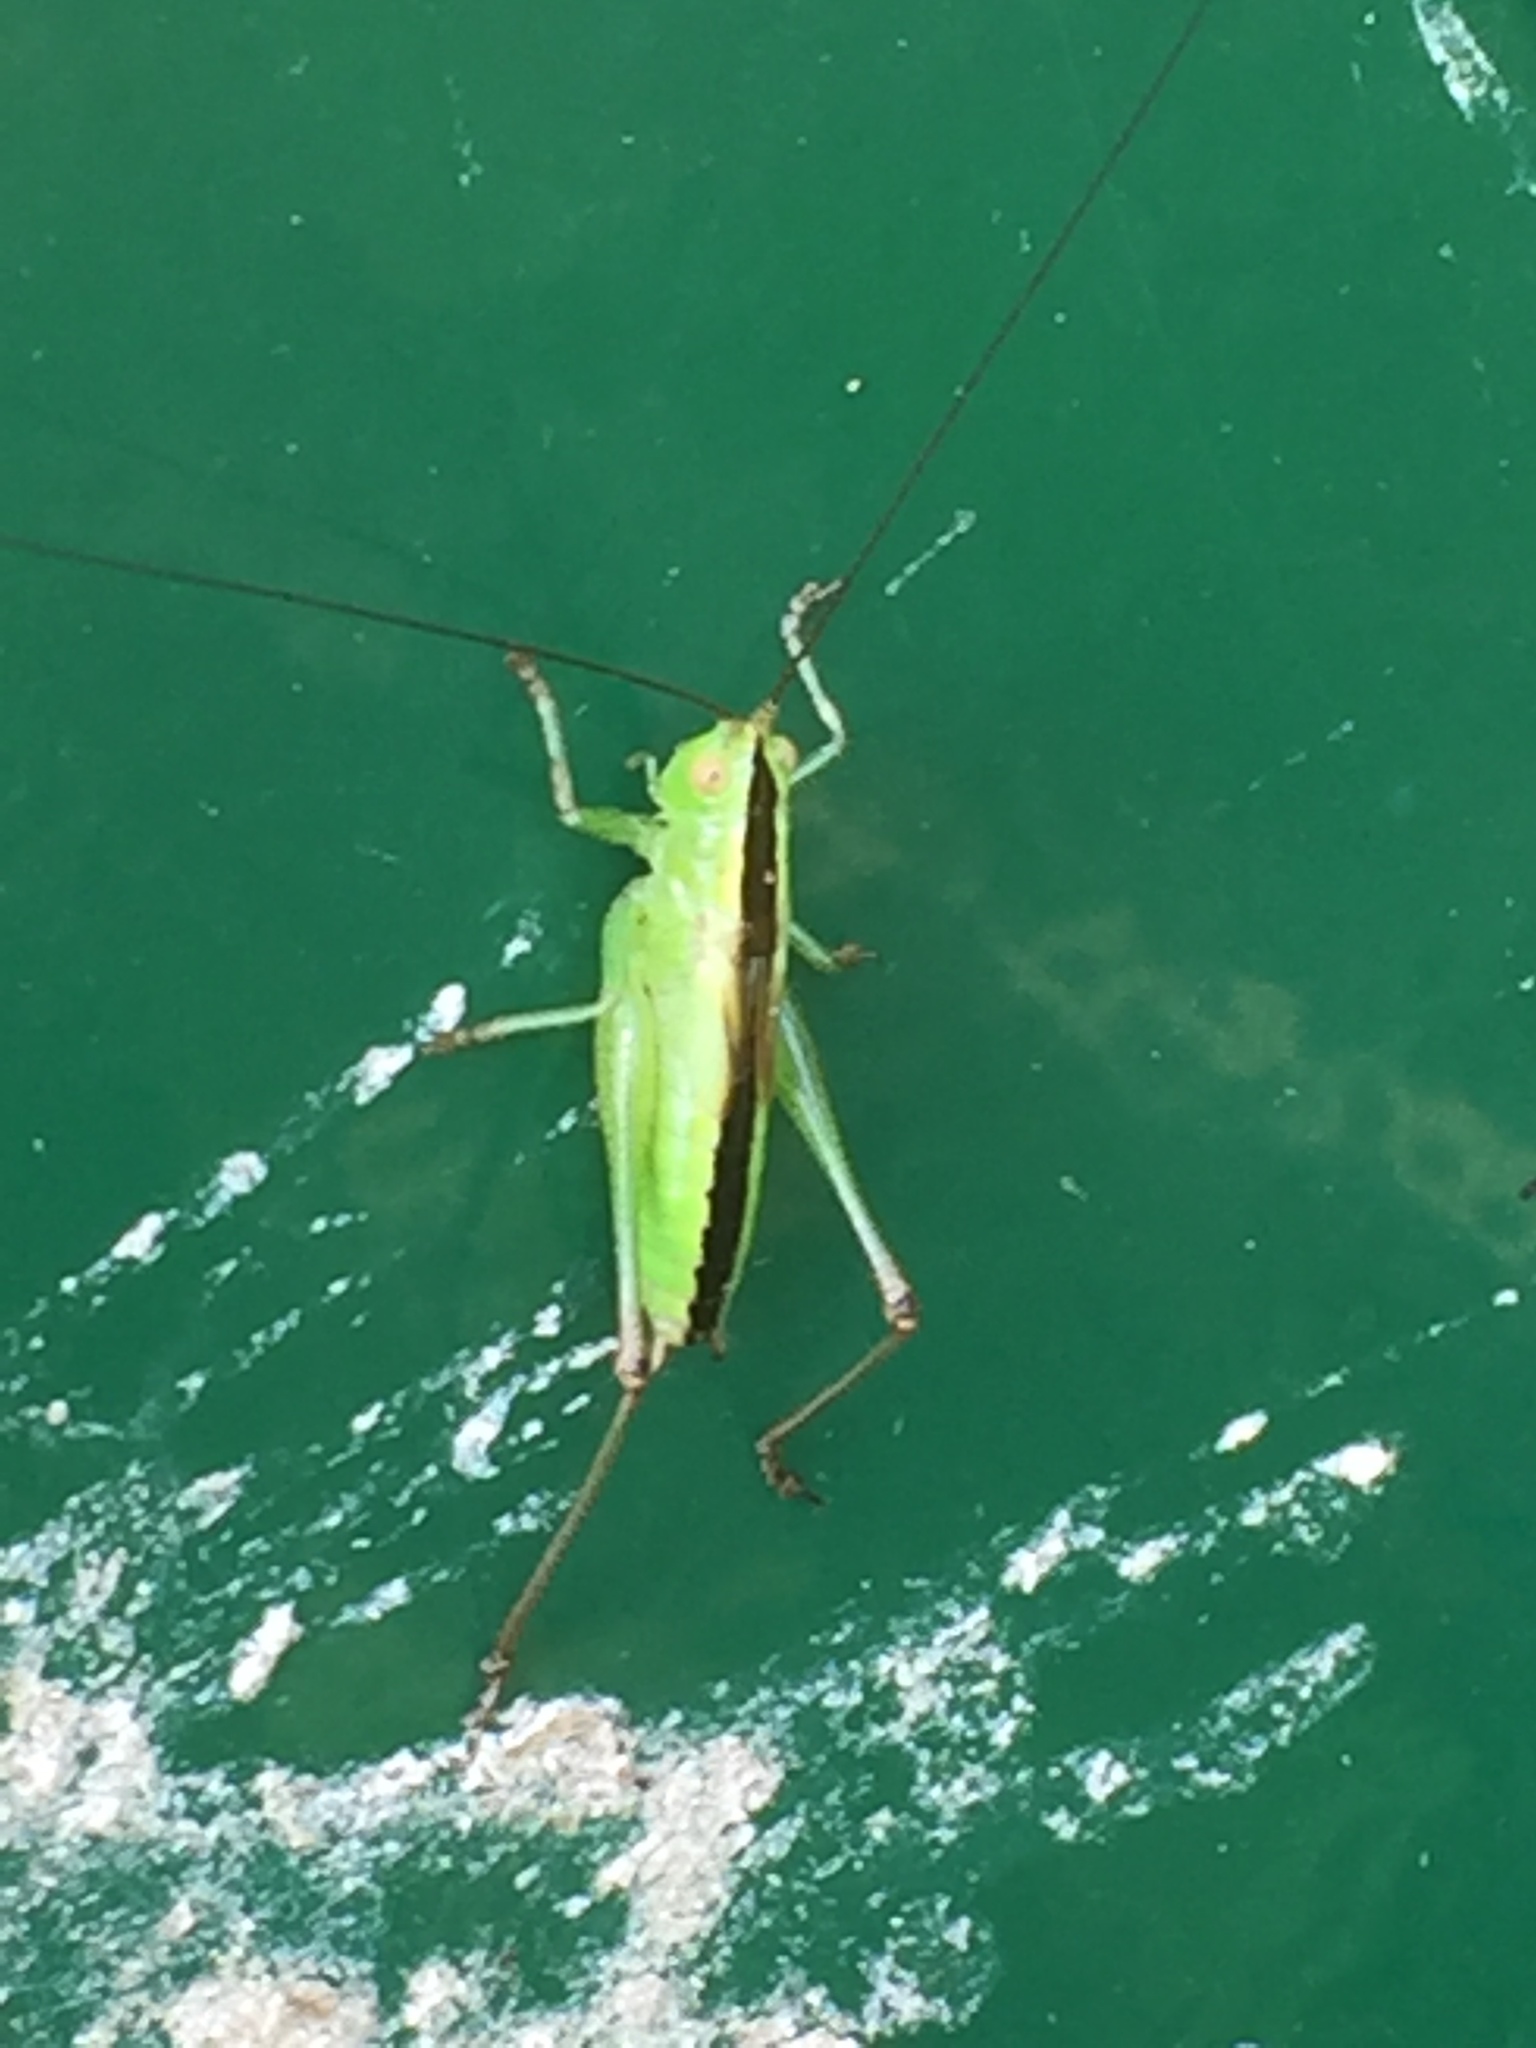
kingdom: Animalia
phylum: Arthropoda
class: Insecta
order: Orthoptera
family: Tettigoniidae
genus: Conocephalus
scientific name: Conocephalus fuscus
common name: Long-winged conehead
